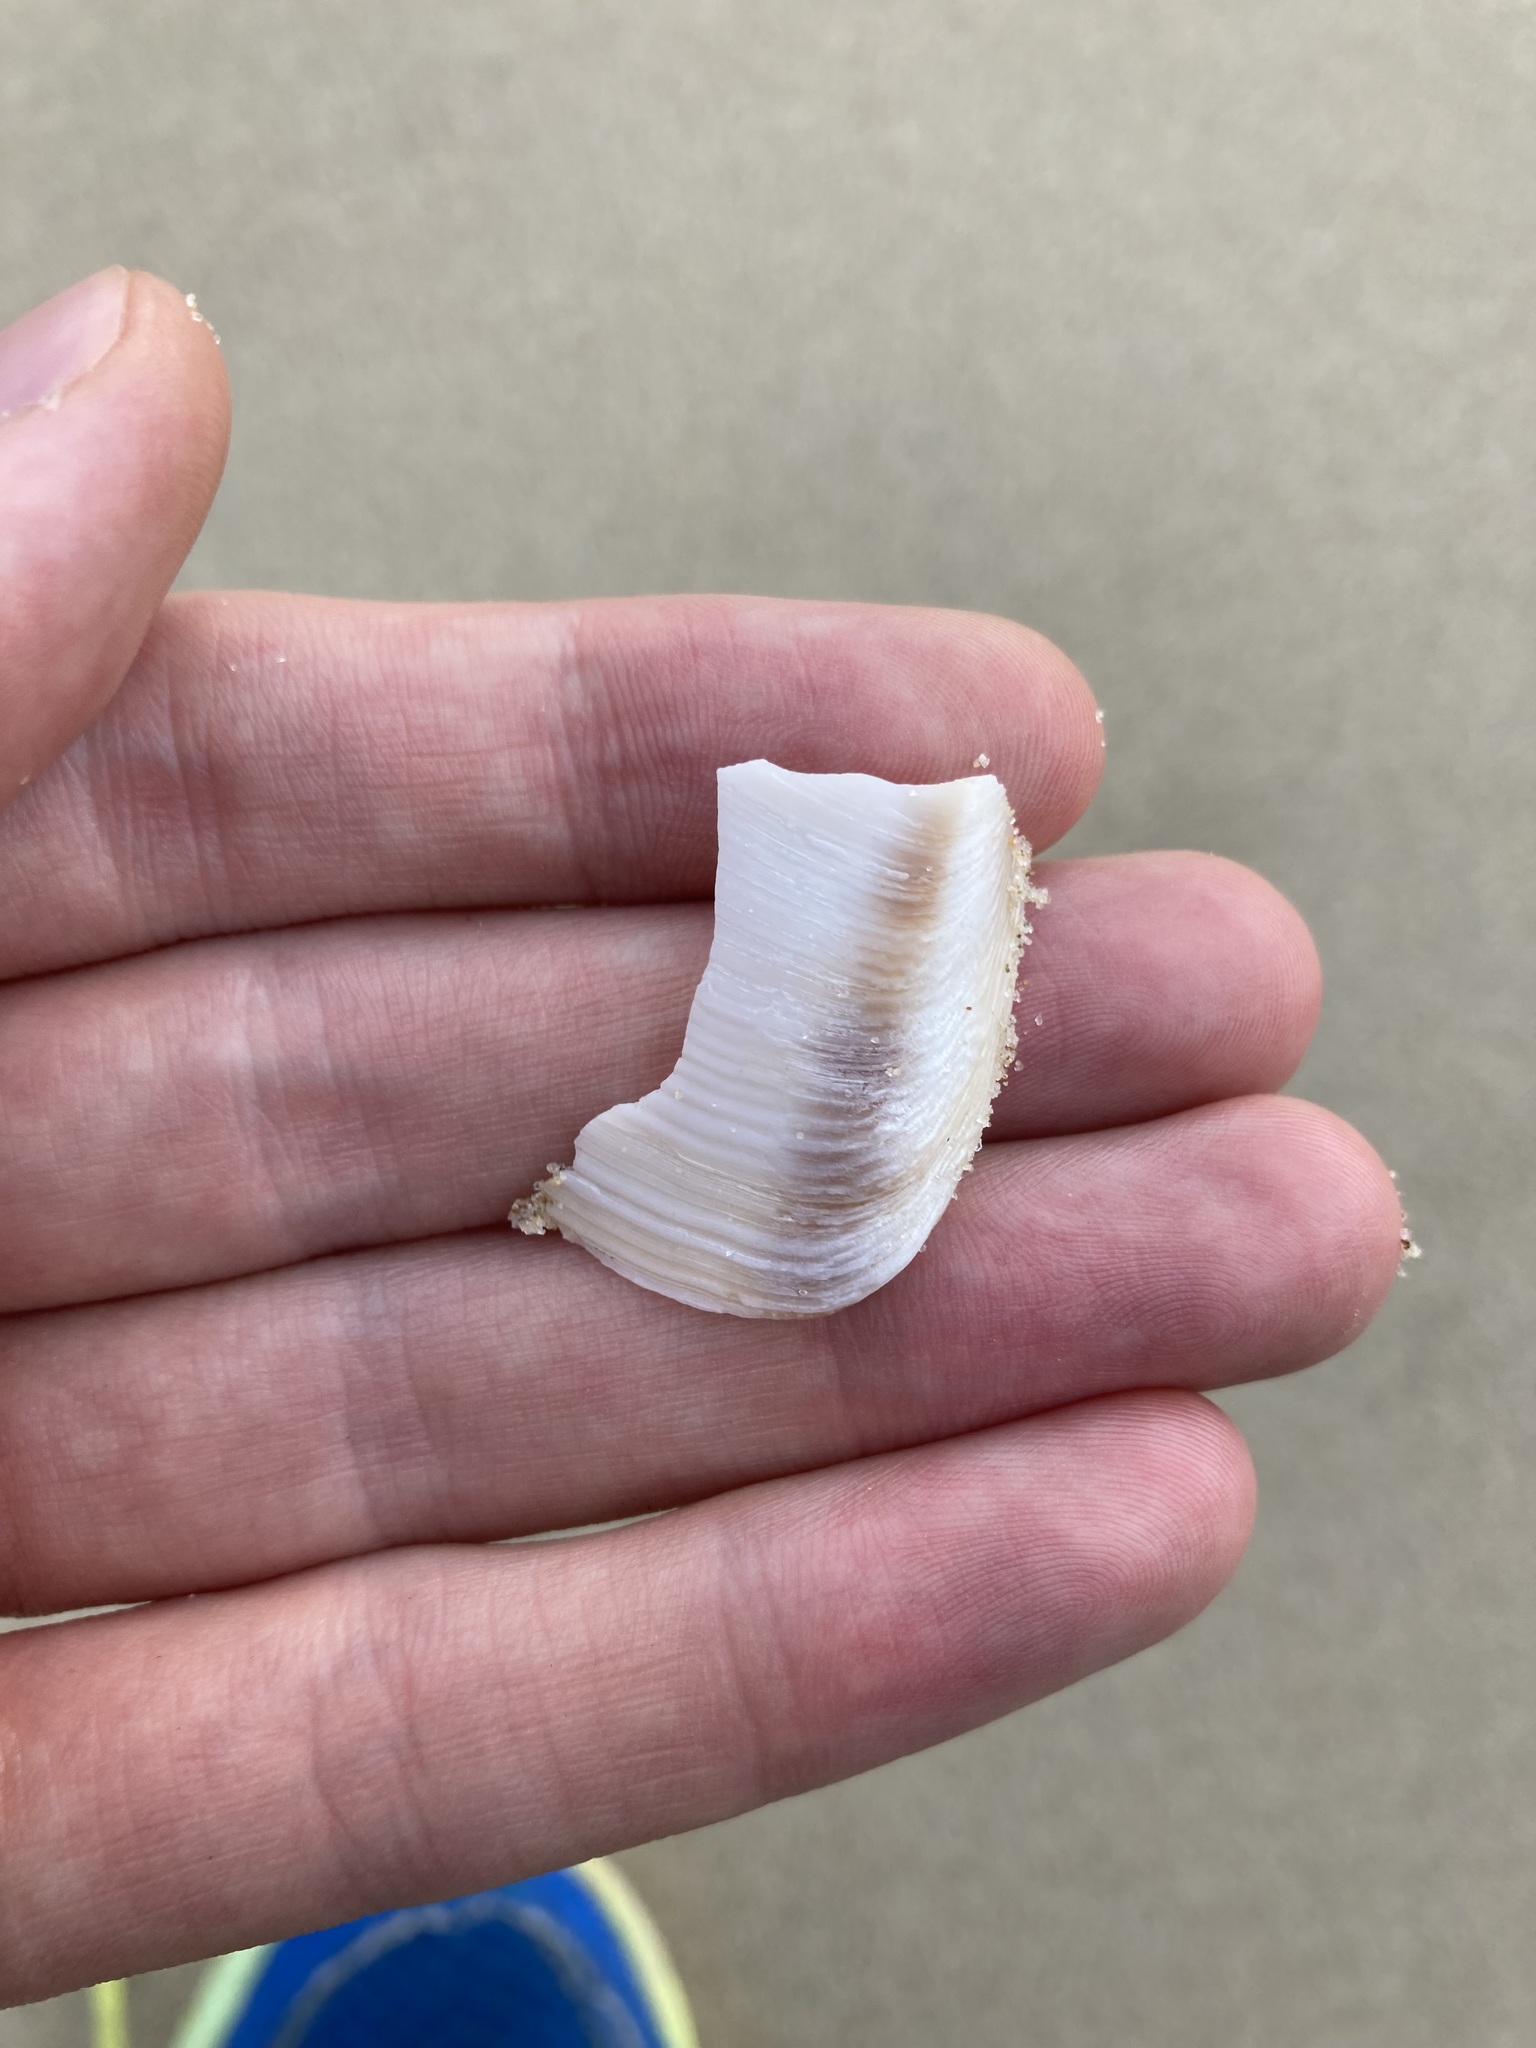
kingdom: Animalia
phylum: Mollusca
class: Bivalvia
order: Venerida
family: Mactridae
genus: Austromactra
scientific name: Austromactra rufescens
